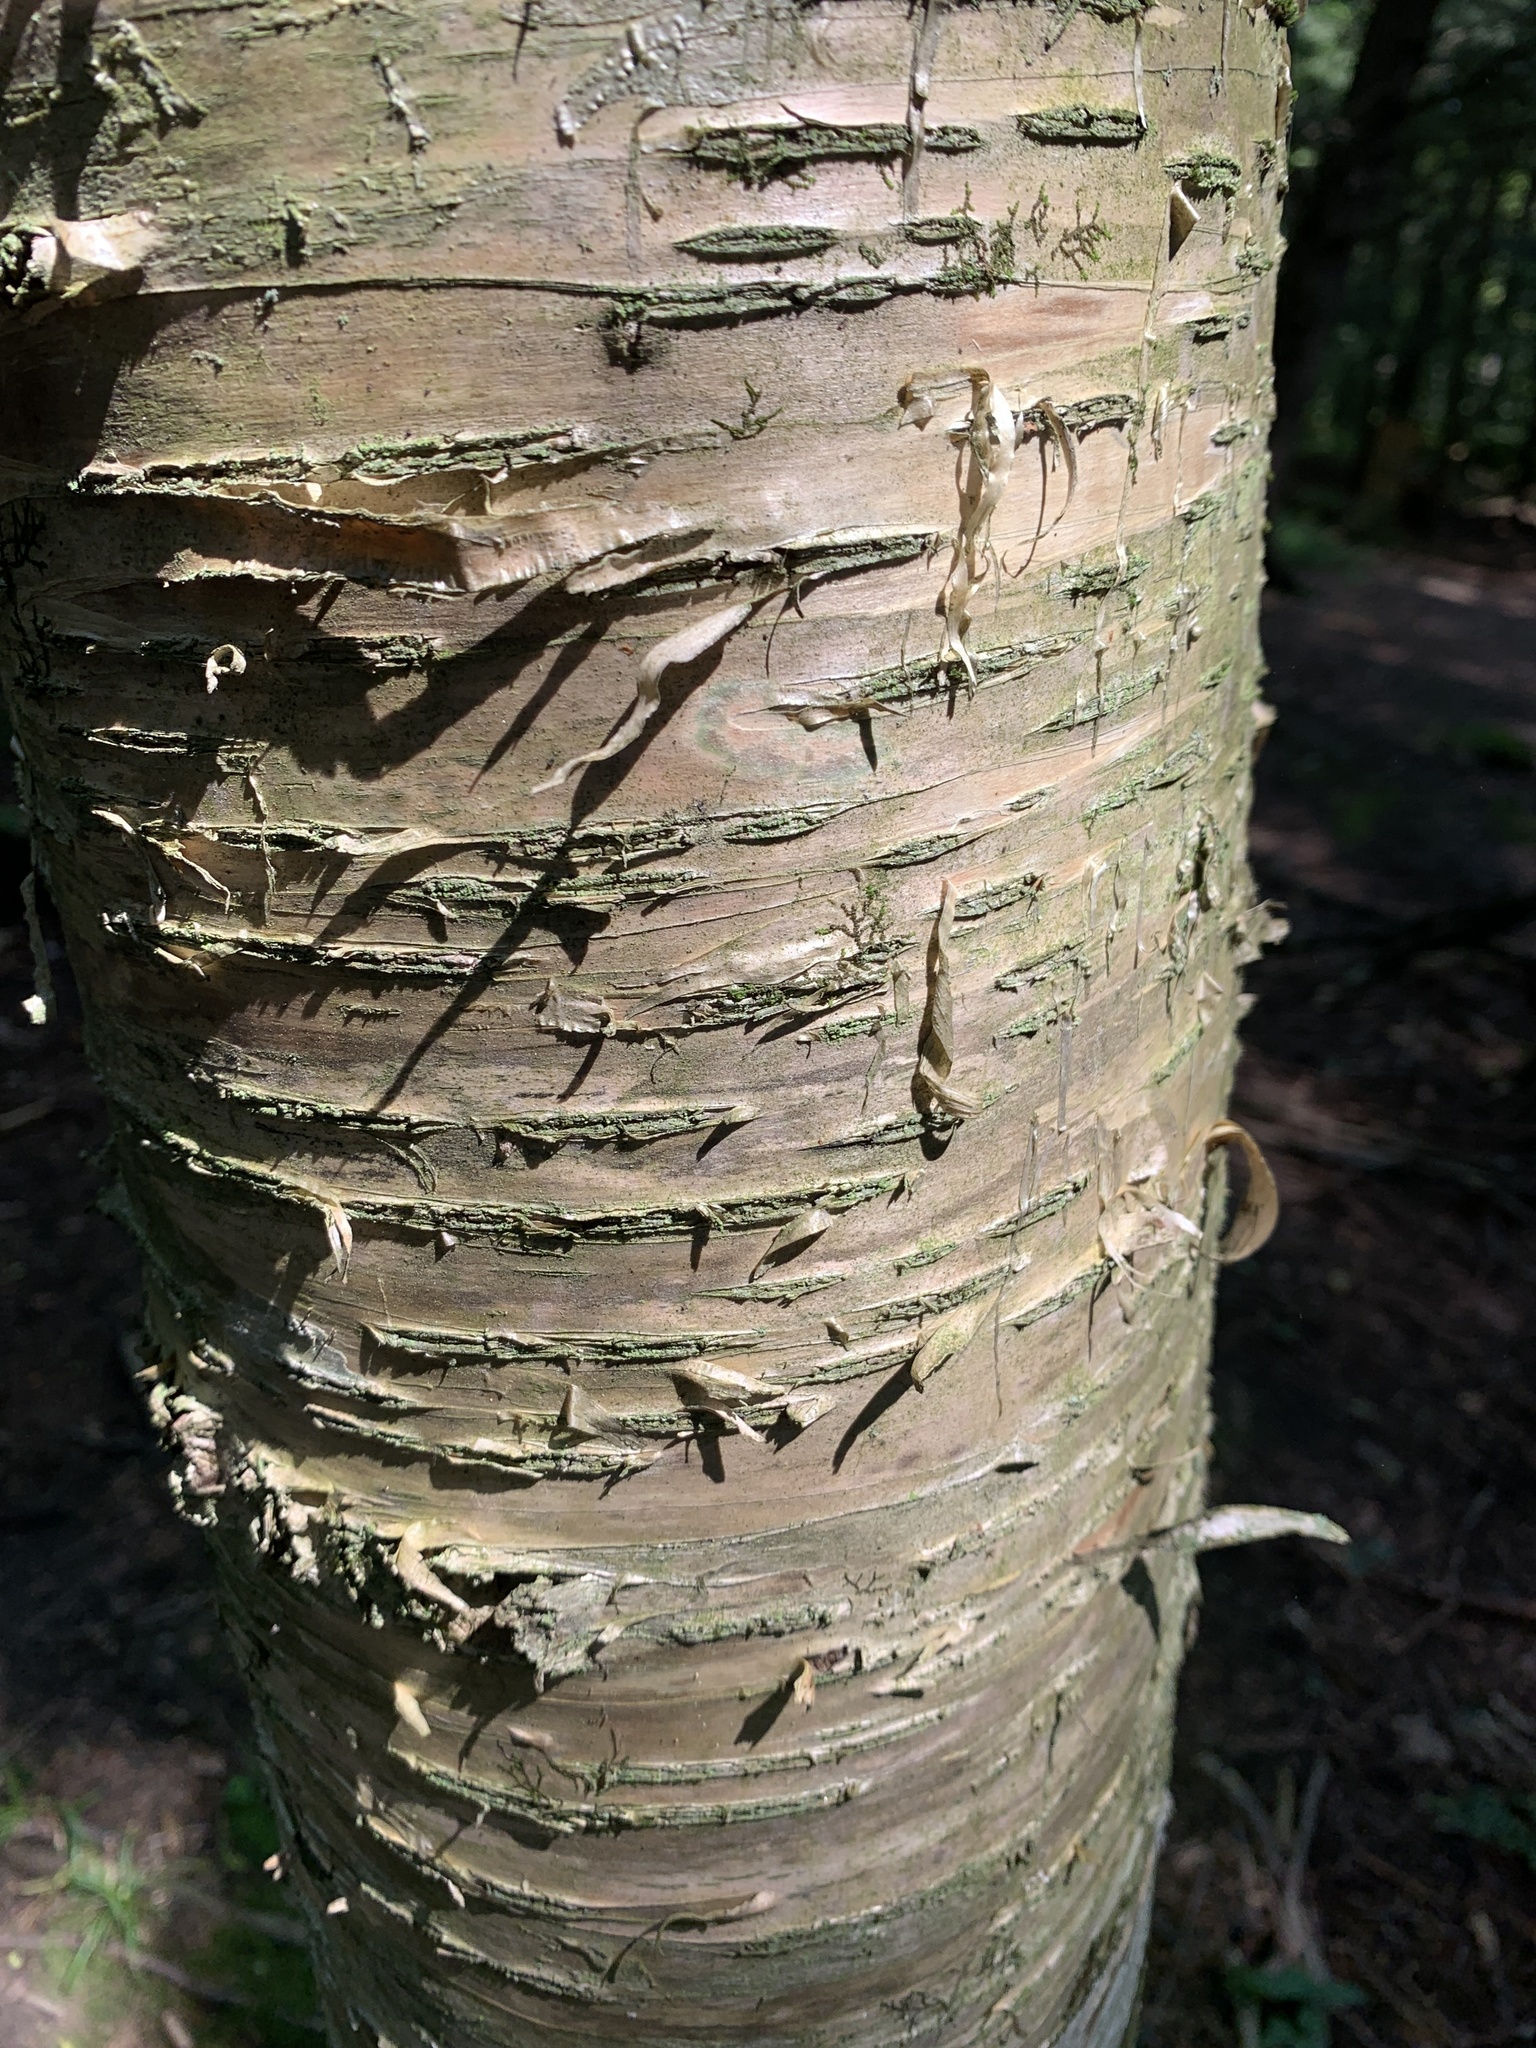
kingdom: Plantae
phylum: Tracheophyta
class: Magnoliopsida
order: Fagales
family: Betulaceae
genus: Betula
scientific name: Betula alleghaniensis
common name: Yellow birch
